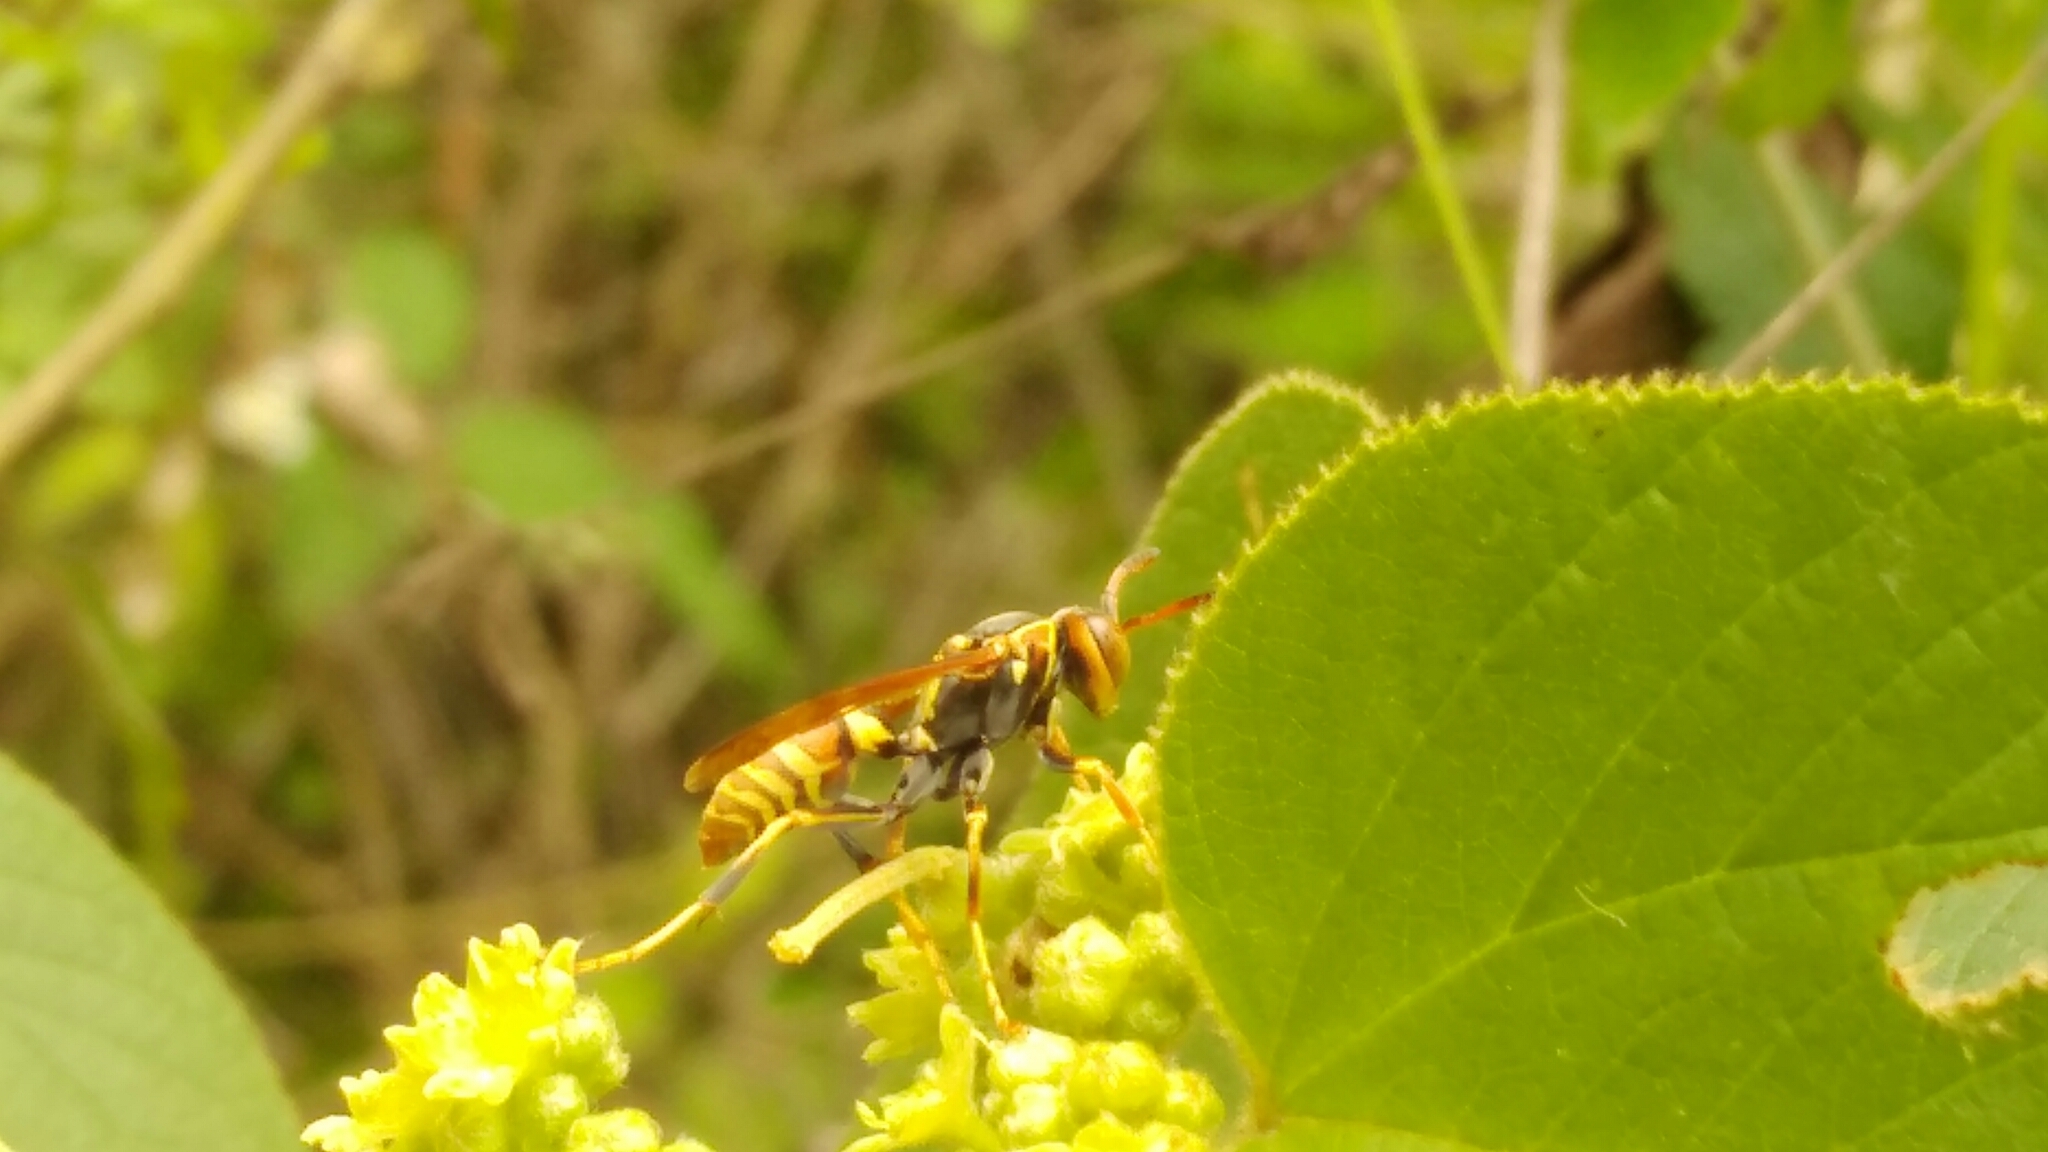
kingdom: Animalia
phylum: Arthropoda
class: Insecta
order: Hymenoptera
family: Eumenidae
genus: Polistes
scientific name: Polistes dorsalis
